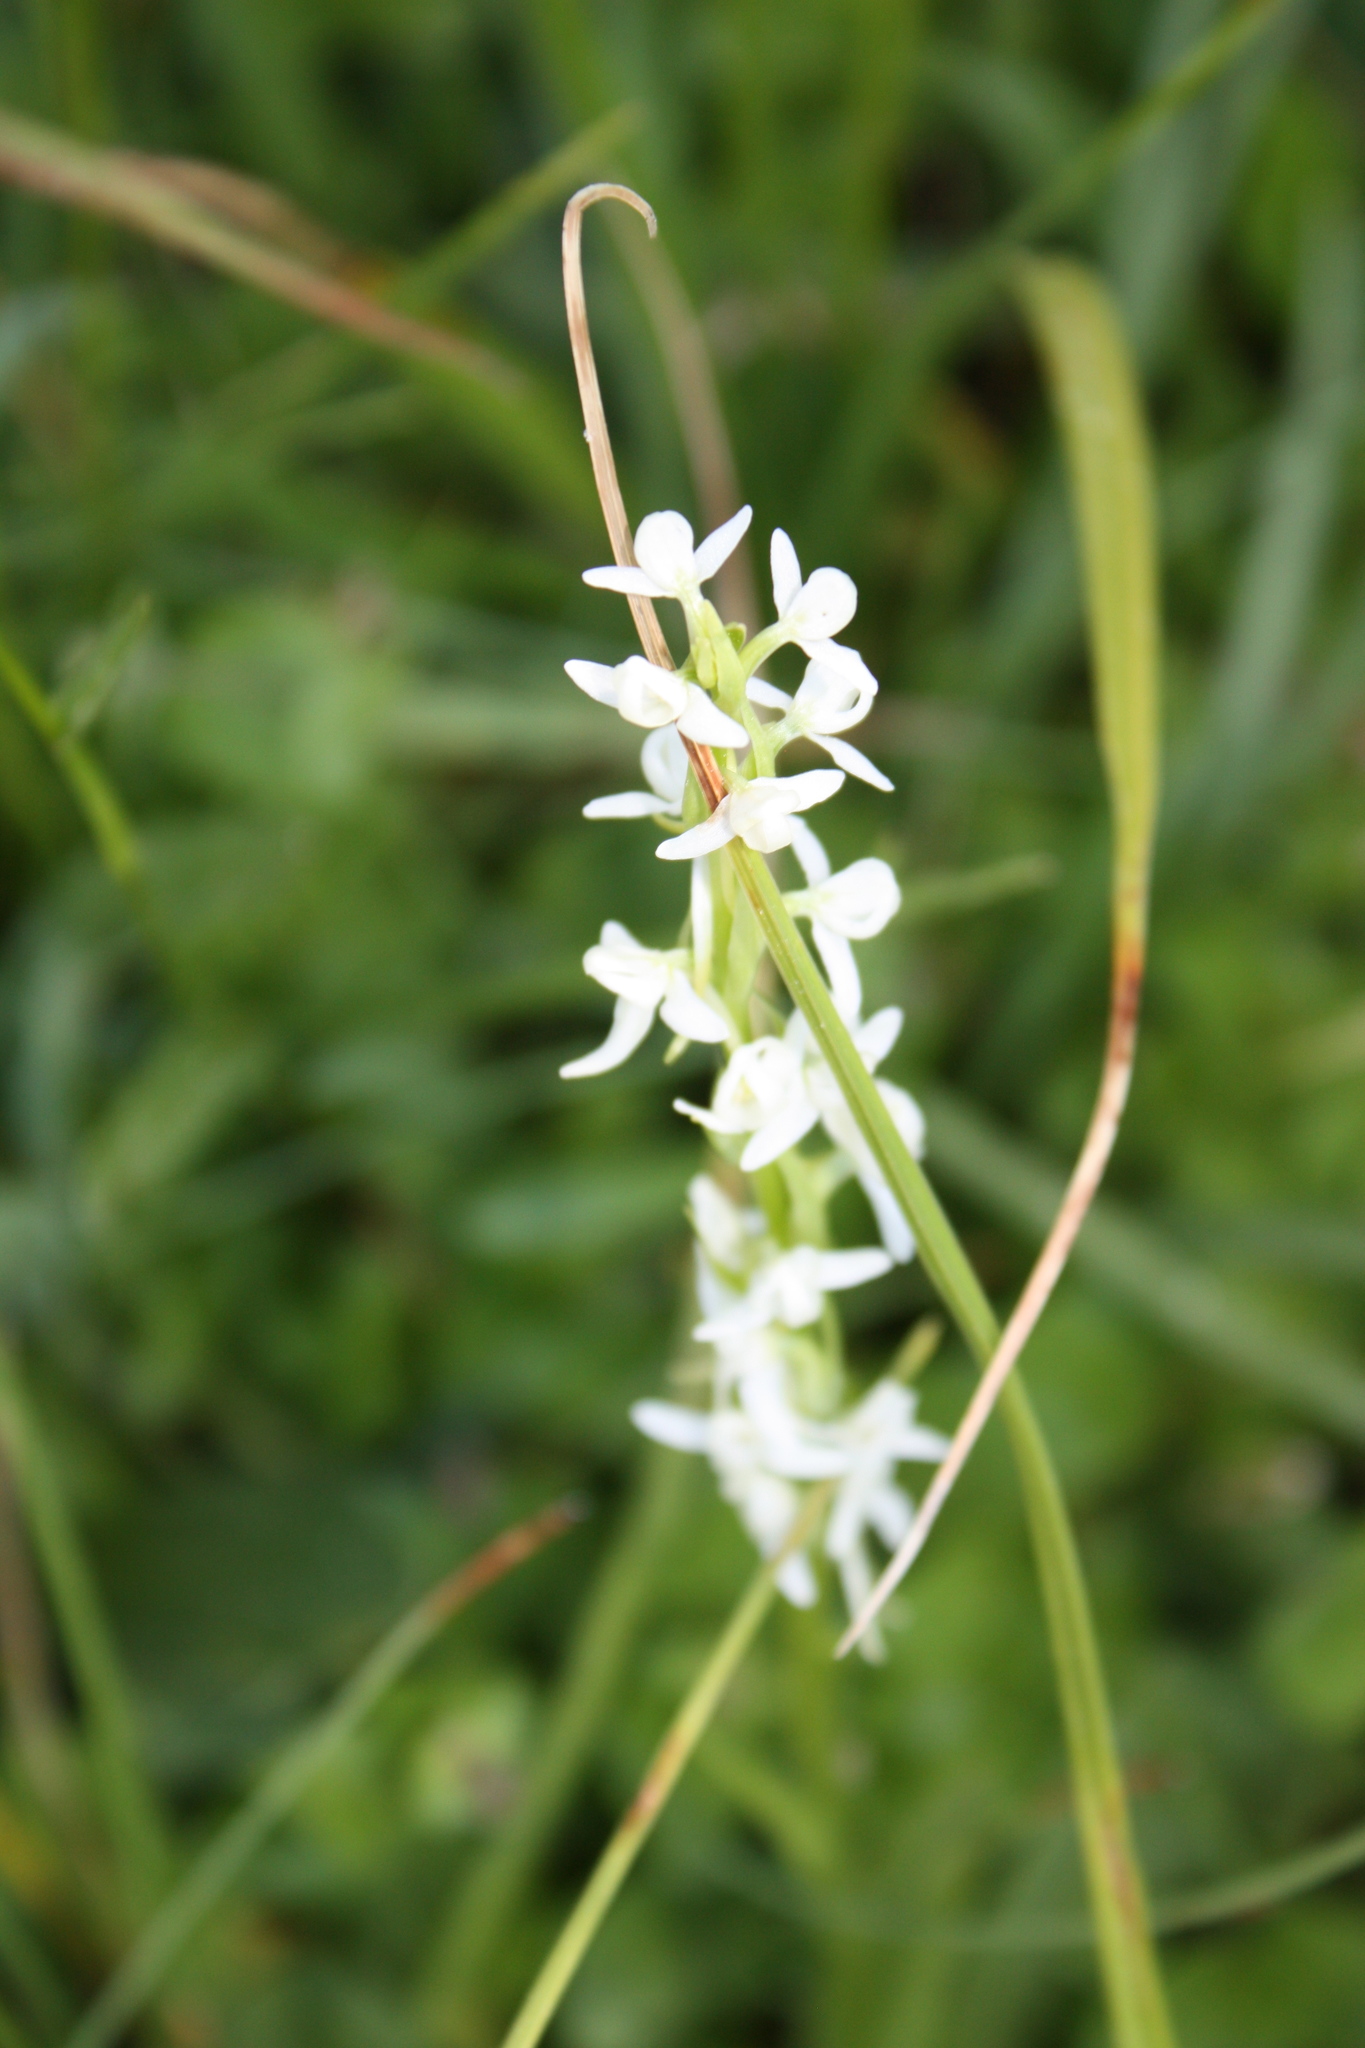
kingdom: Plantae
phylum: Tracheophyta
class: Liliopsida
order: Asparagales
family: Orchidaceae
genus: Platanthera
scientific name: Platanthera dilatata
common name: Bog candles
